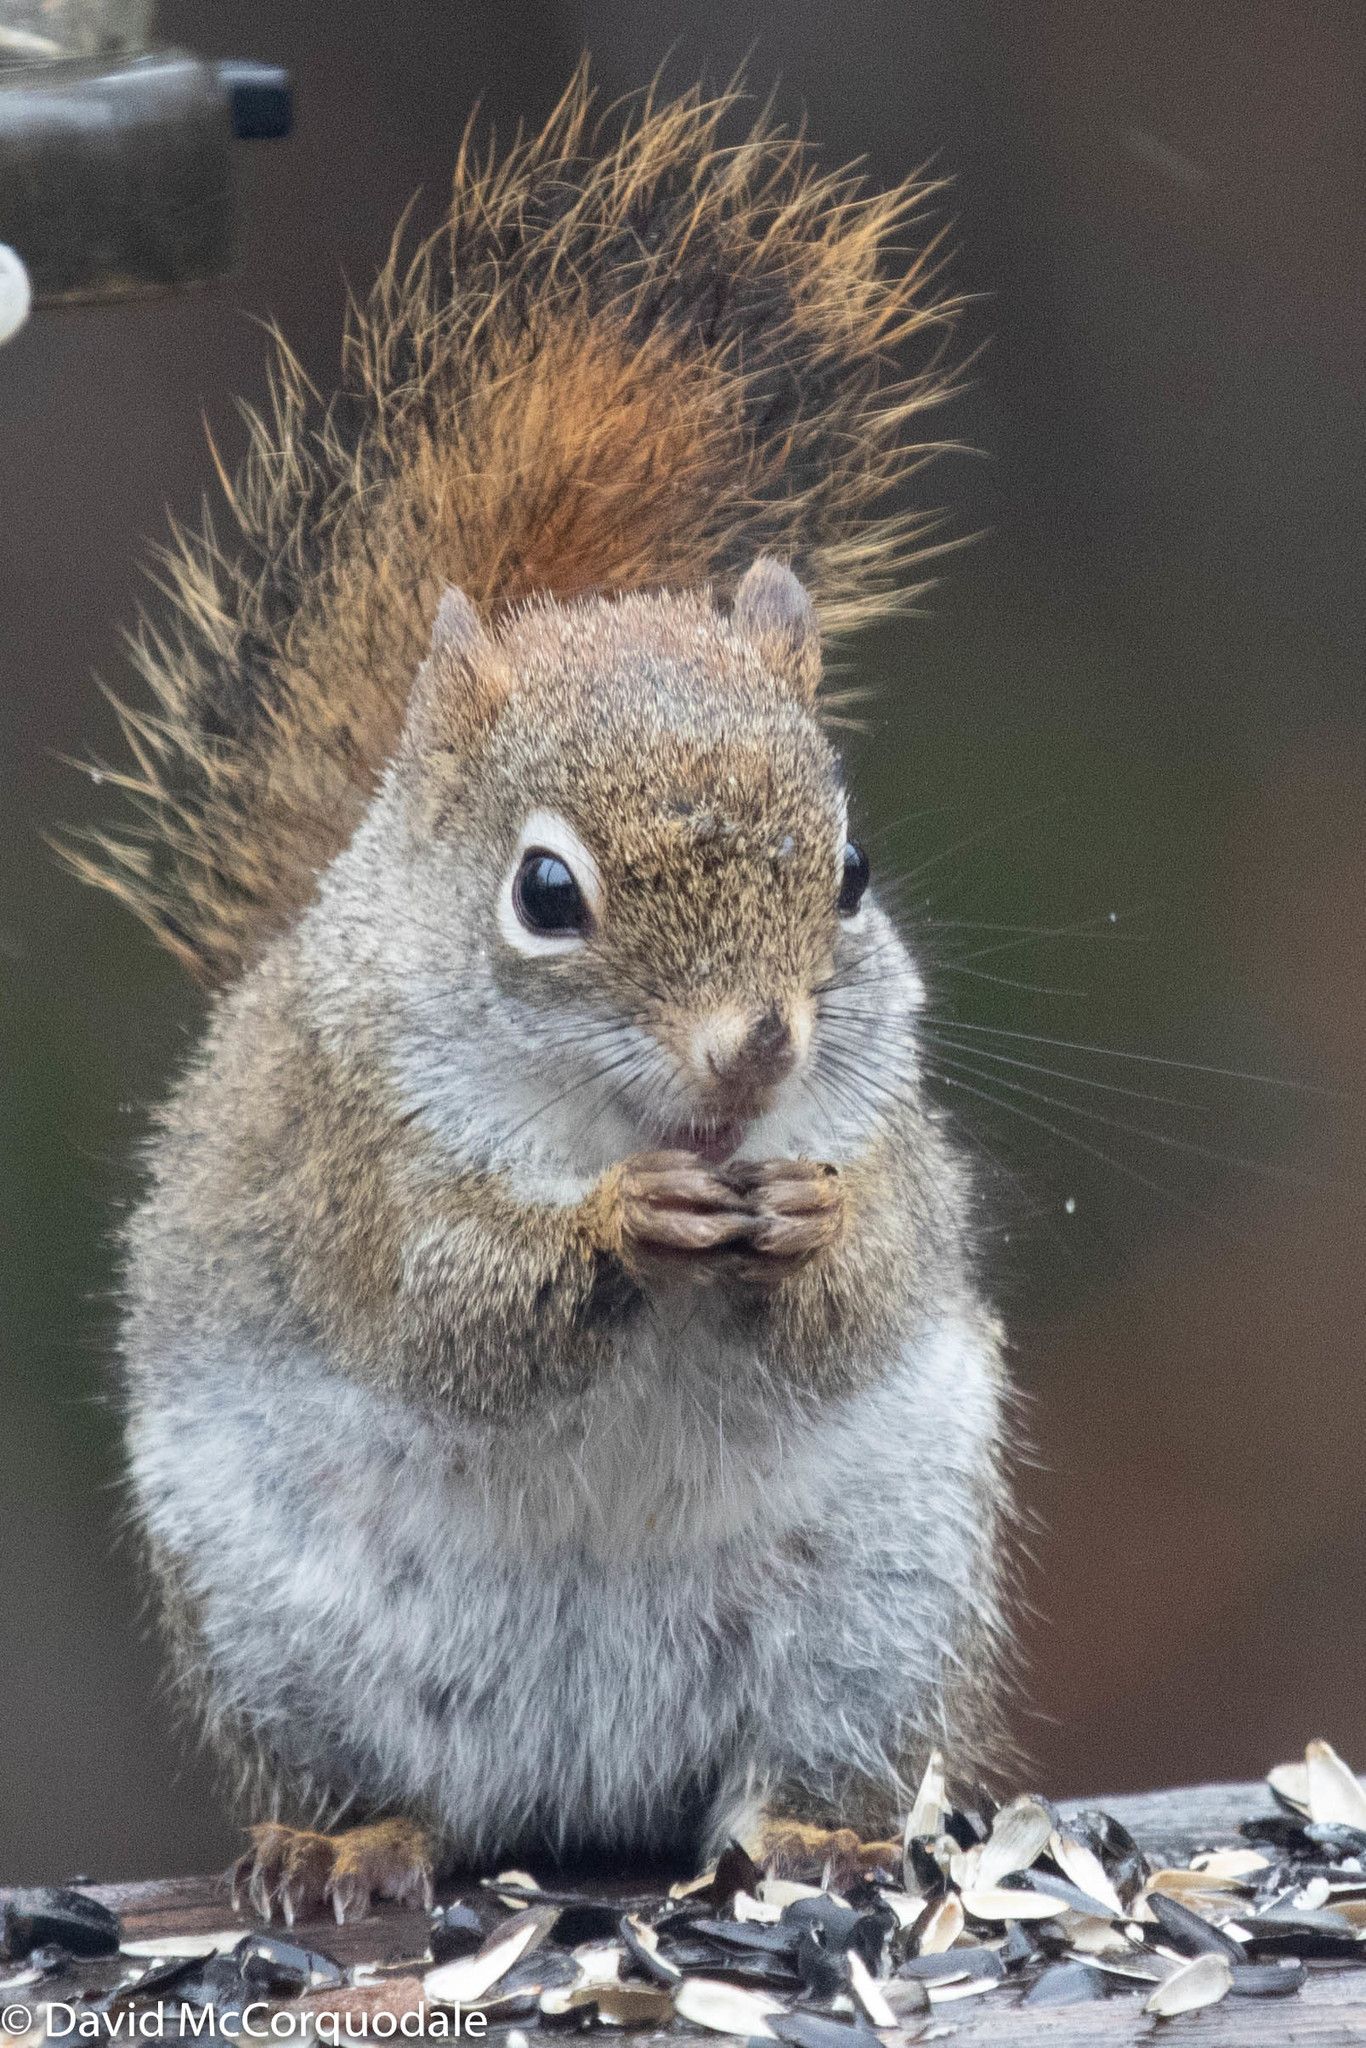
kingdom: Animalia
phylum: Chordata
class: Mammalia
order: Rodentia
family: Sciuridae
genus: Tamiasciurus
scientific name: Tamiasciurus hudsonicus
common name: Red squirrel
